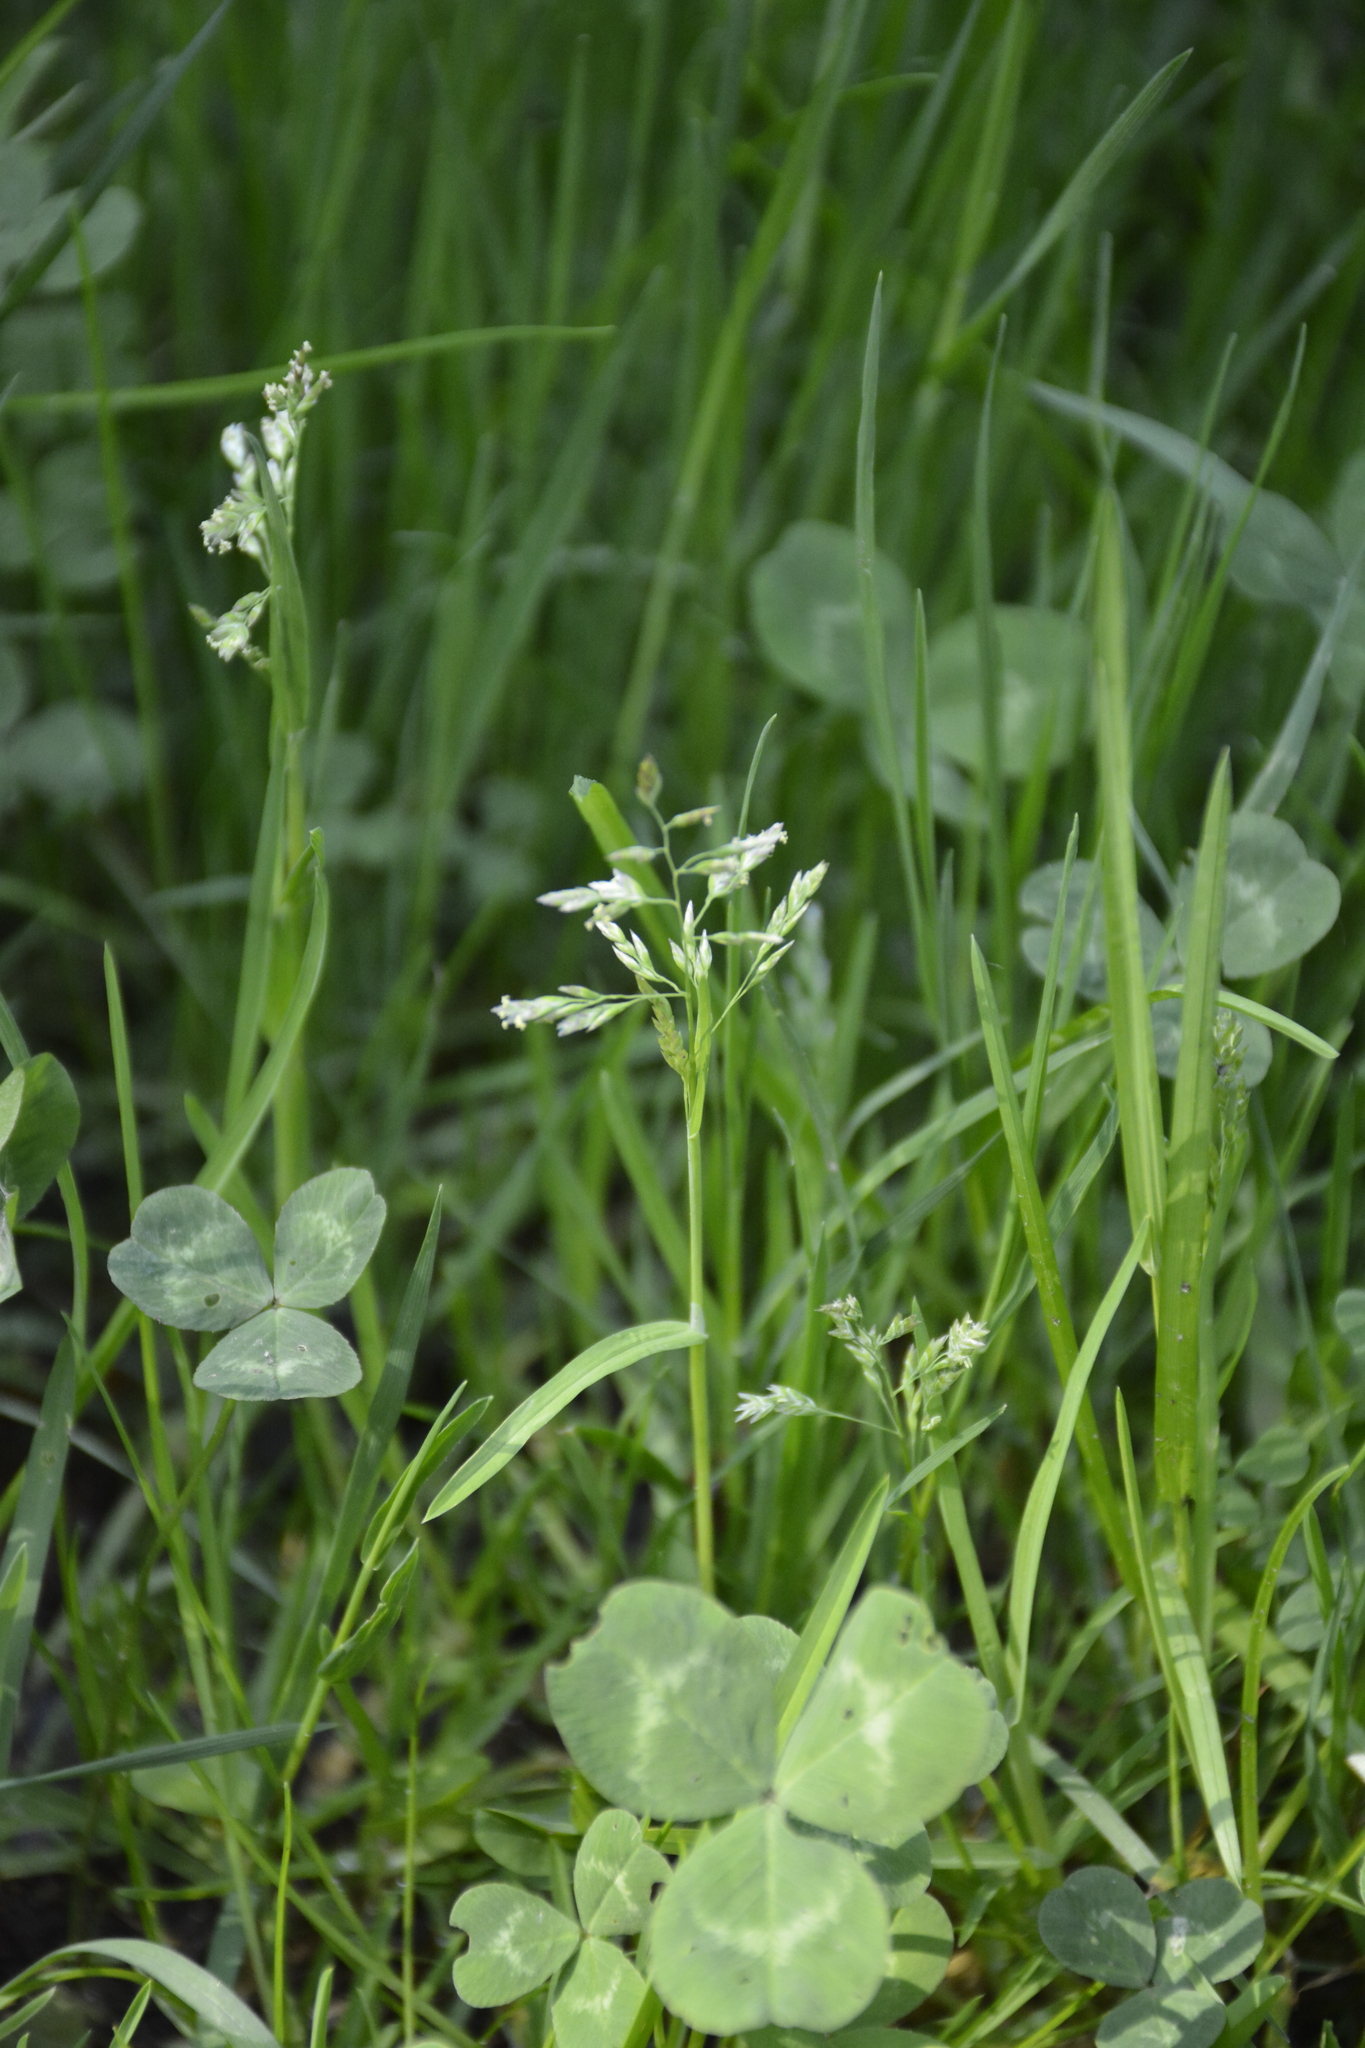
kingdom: Plantae
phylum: Tracheophyta
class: Liliopsida
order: Poales
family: Poaceae
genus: Poa
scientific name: Poa annua
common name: Annual bluegrass
